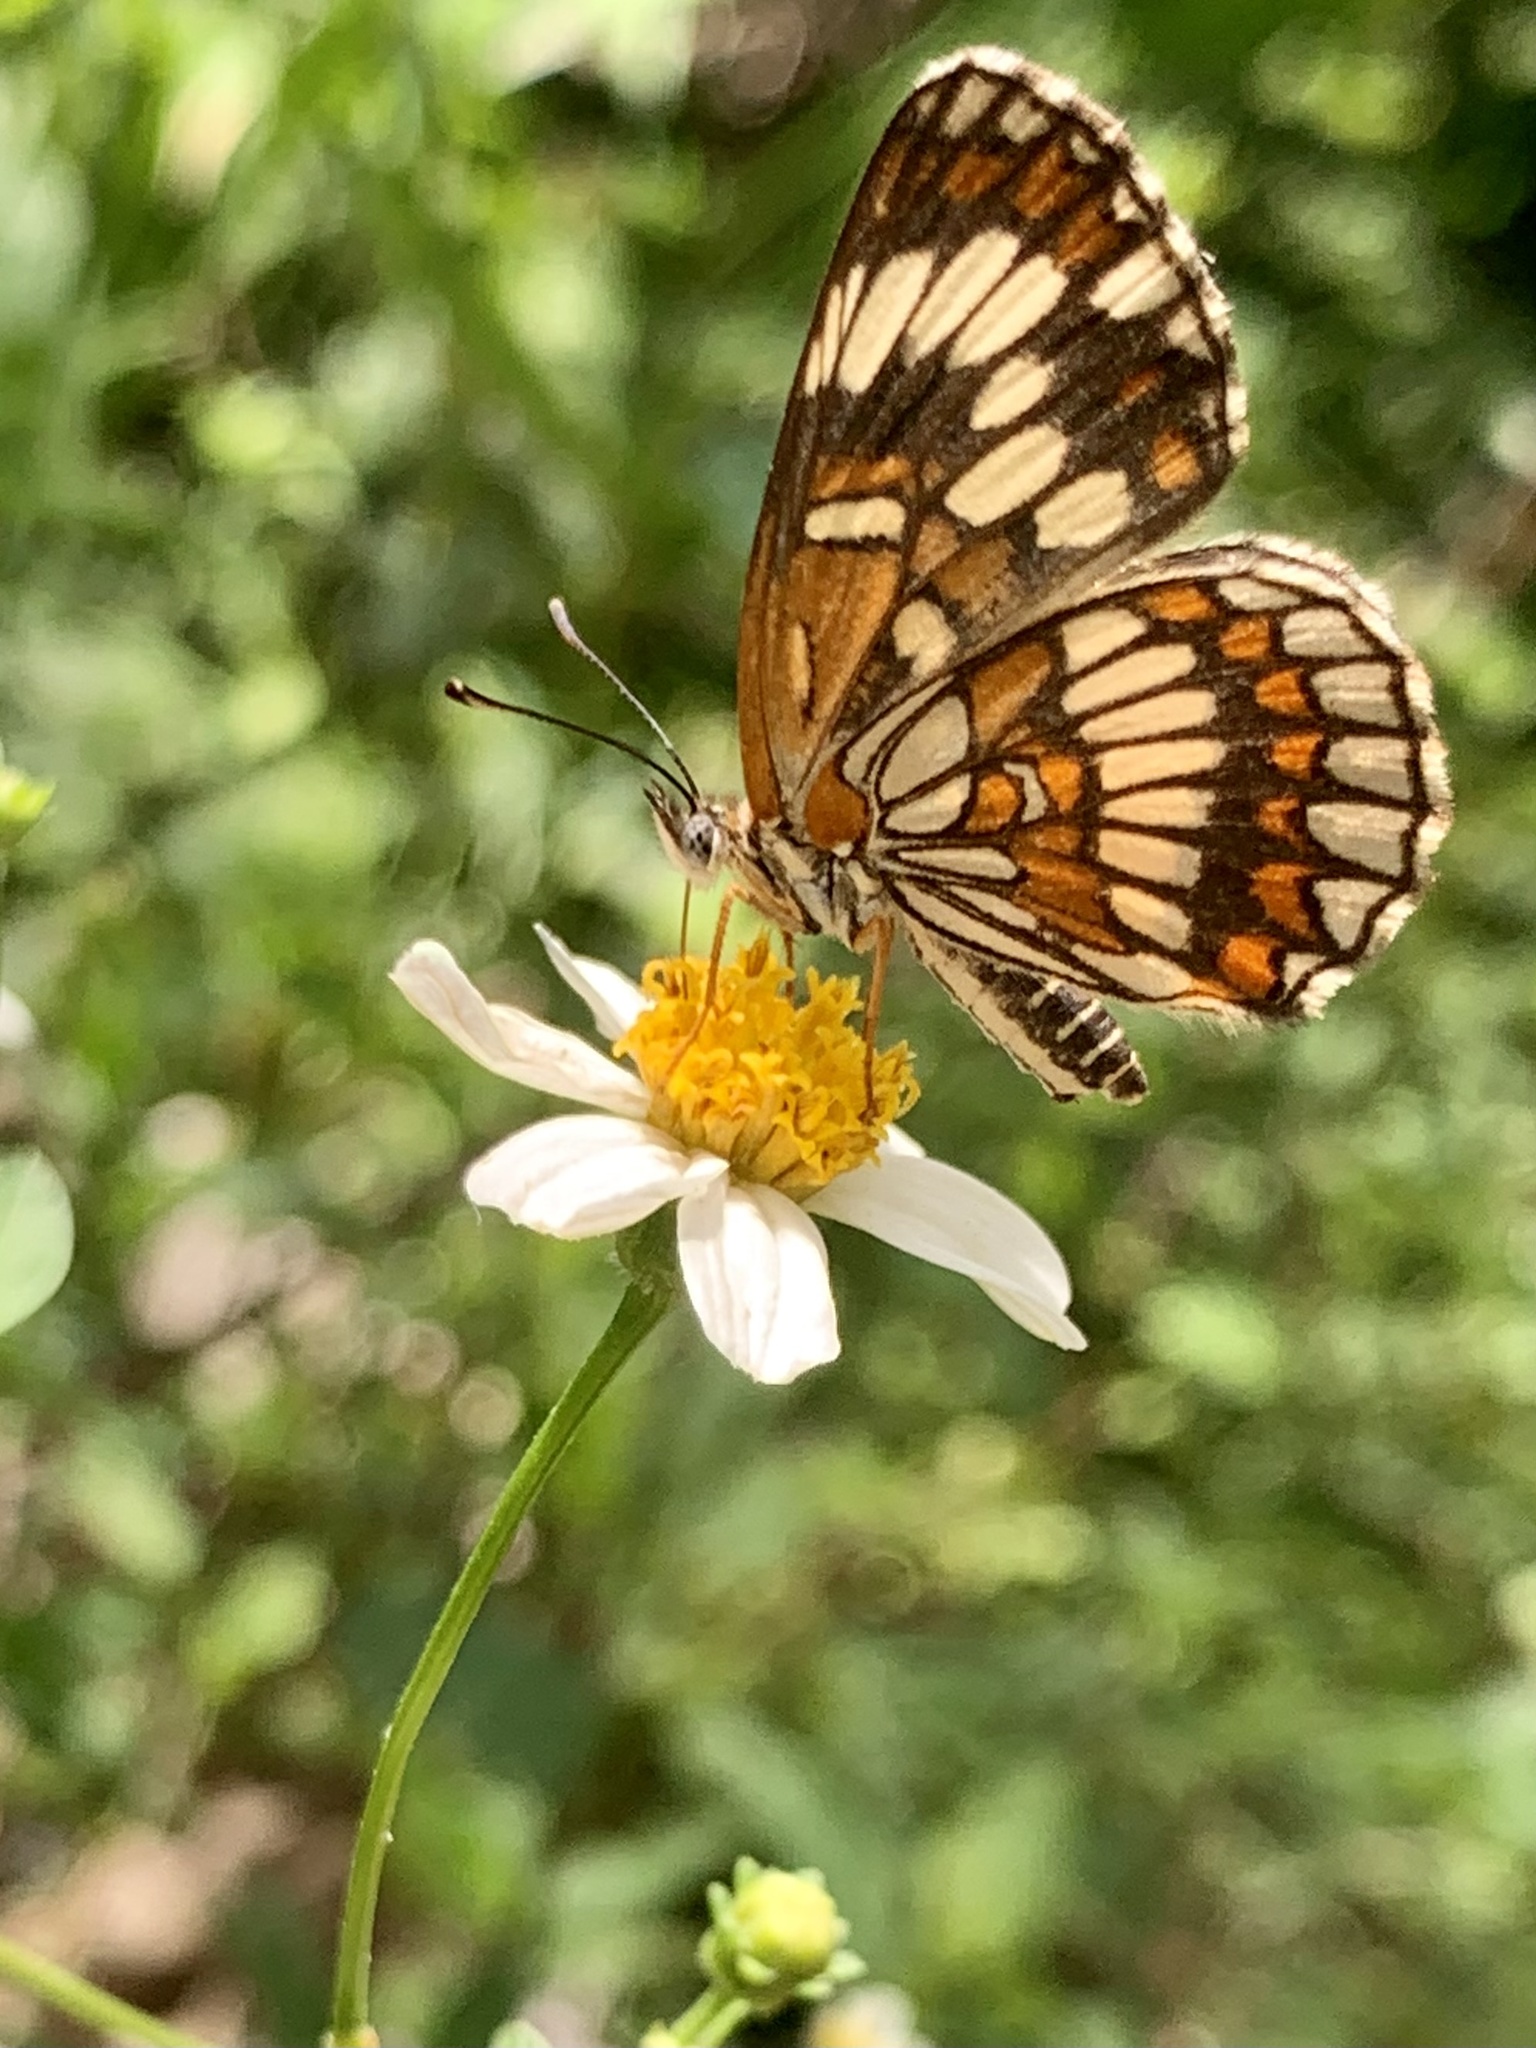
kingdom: Animalia
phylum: Arthropoda
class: Insecta
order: Lepidoptera
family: Nymphalidae
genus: Thessalia
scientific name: Thessalia theona
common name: Nymphalid moth
